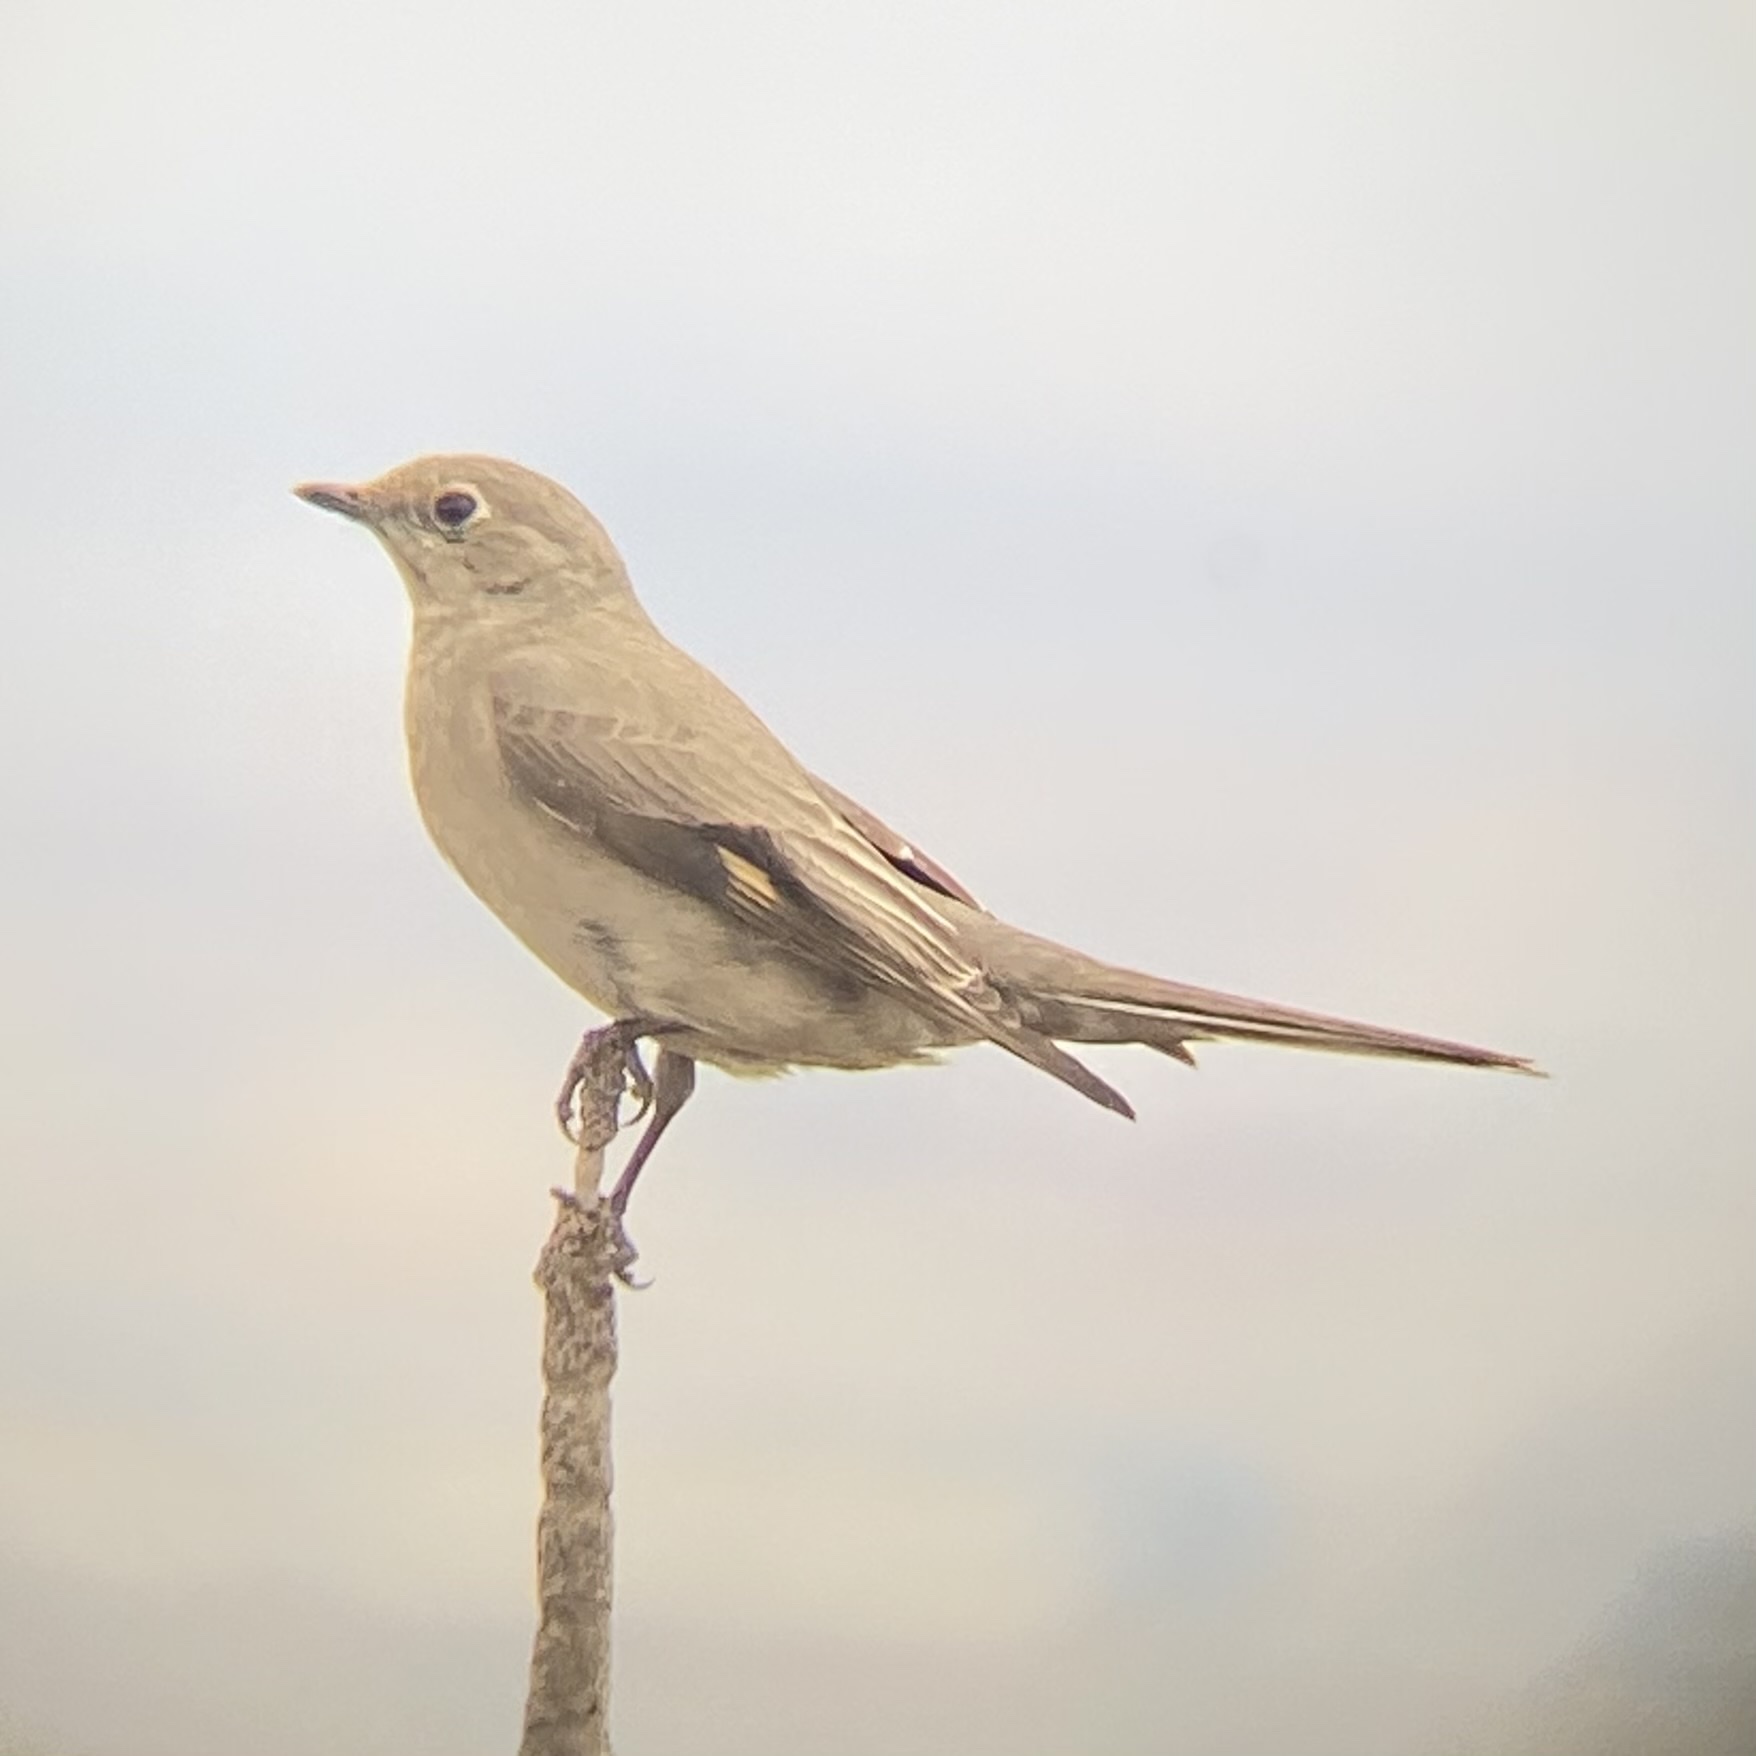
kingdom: Animalia
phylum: Chordata
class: Aves
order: Passeriformes
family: Turdidae
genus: Myadestes
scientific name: Myadestes townsendi
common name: Townsend's solitaire
